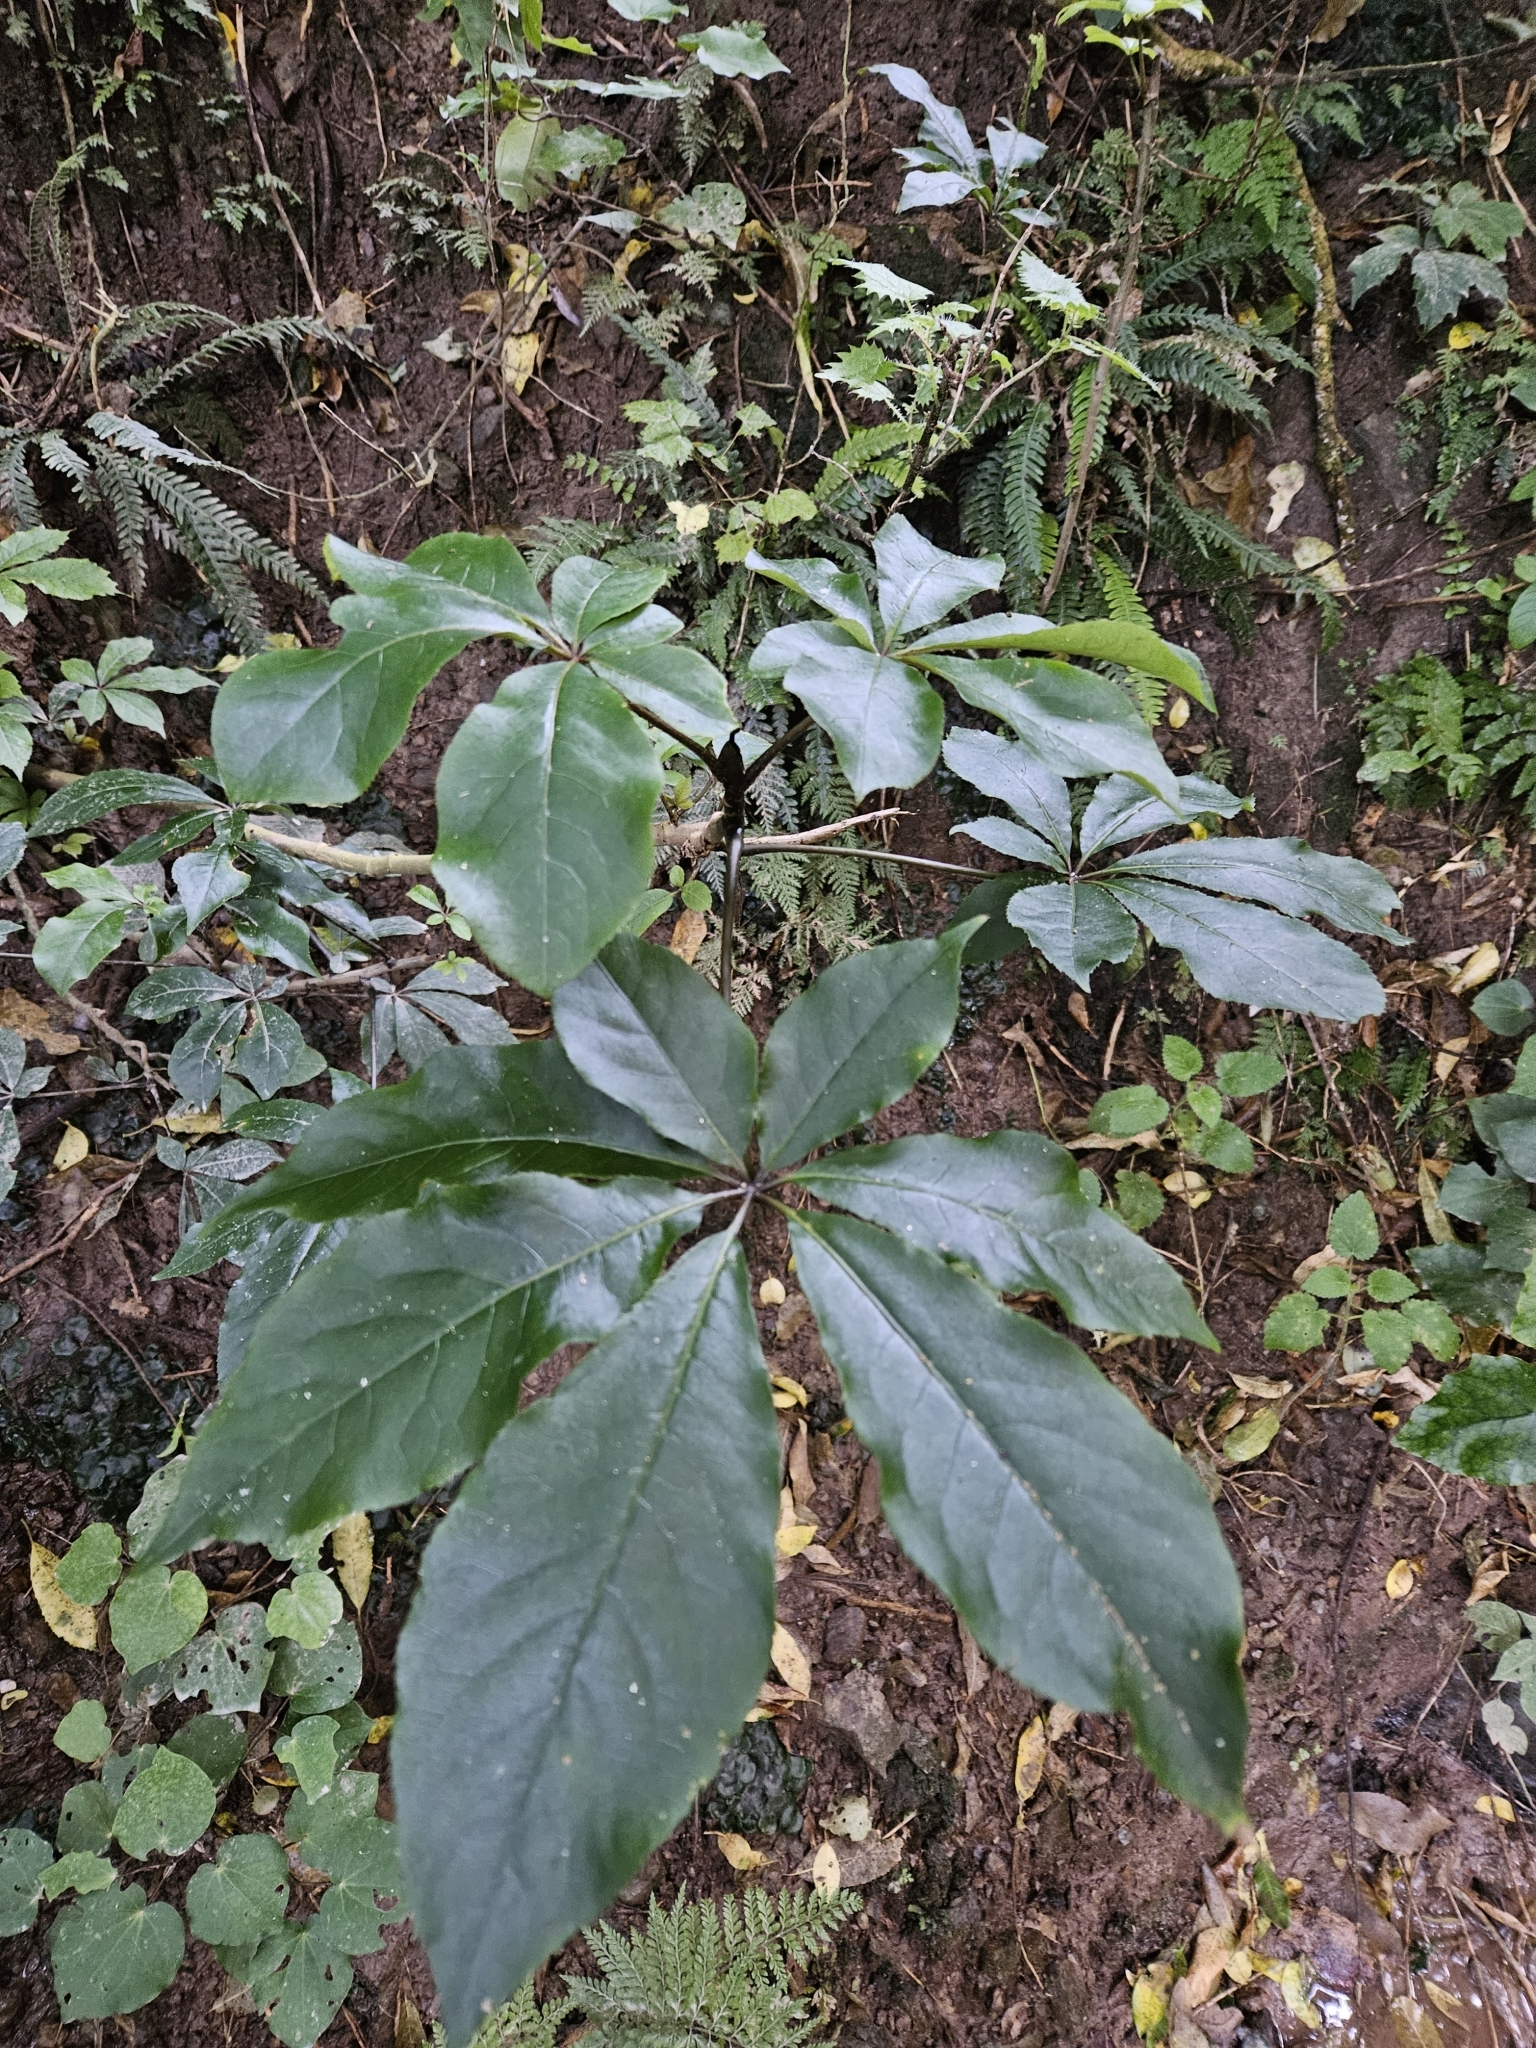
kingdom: Plantae
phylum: Tracheophyta
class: Magnoliopsida
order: Apiales
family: Araliaceae
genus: Schefflera
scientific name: Schefflera digitata
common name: Pate
